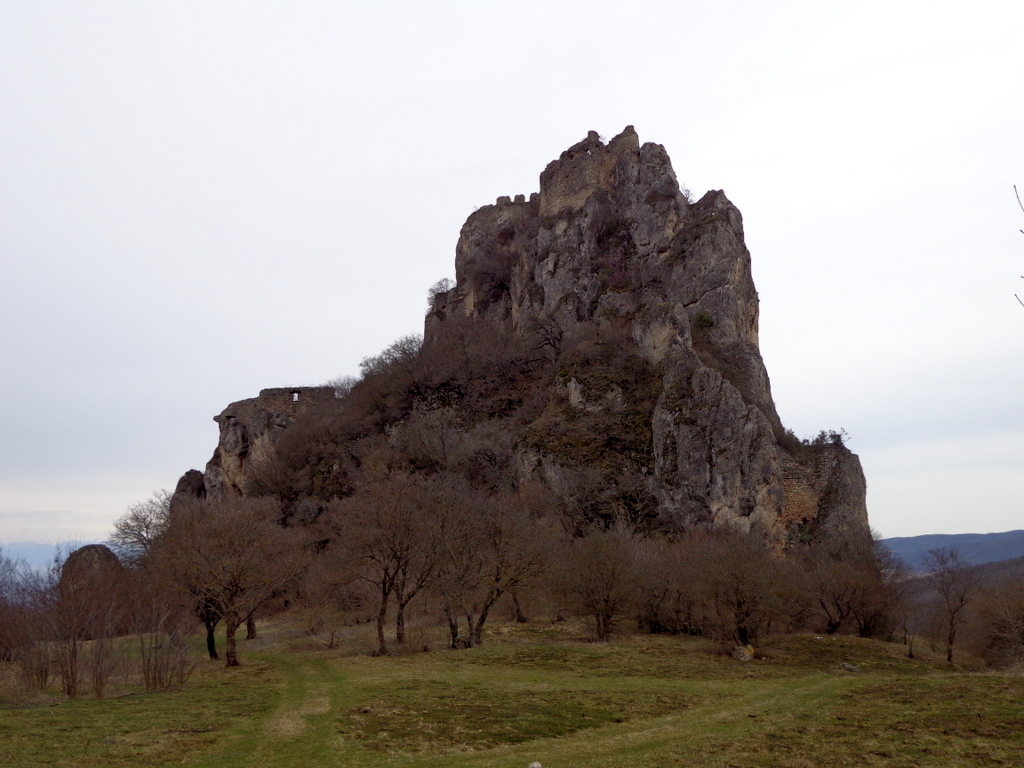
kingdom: Animalia
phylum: Chordata
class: Aves
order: Accipitriformes
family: Accipitridae
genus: Gyps
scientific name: Gyps fulvus
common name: Griffon vulture
